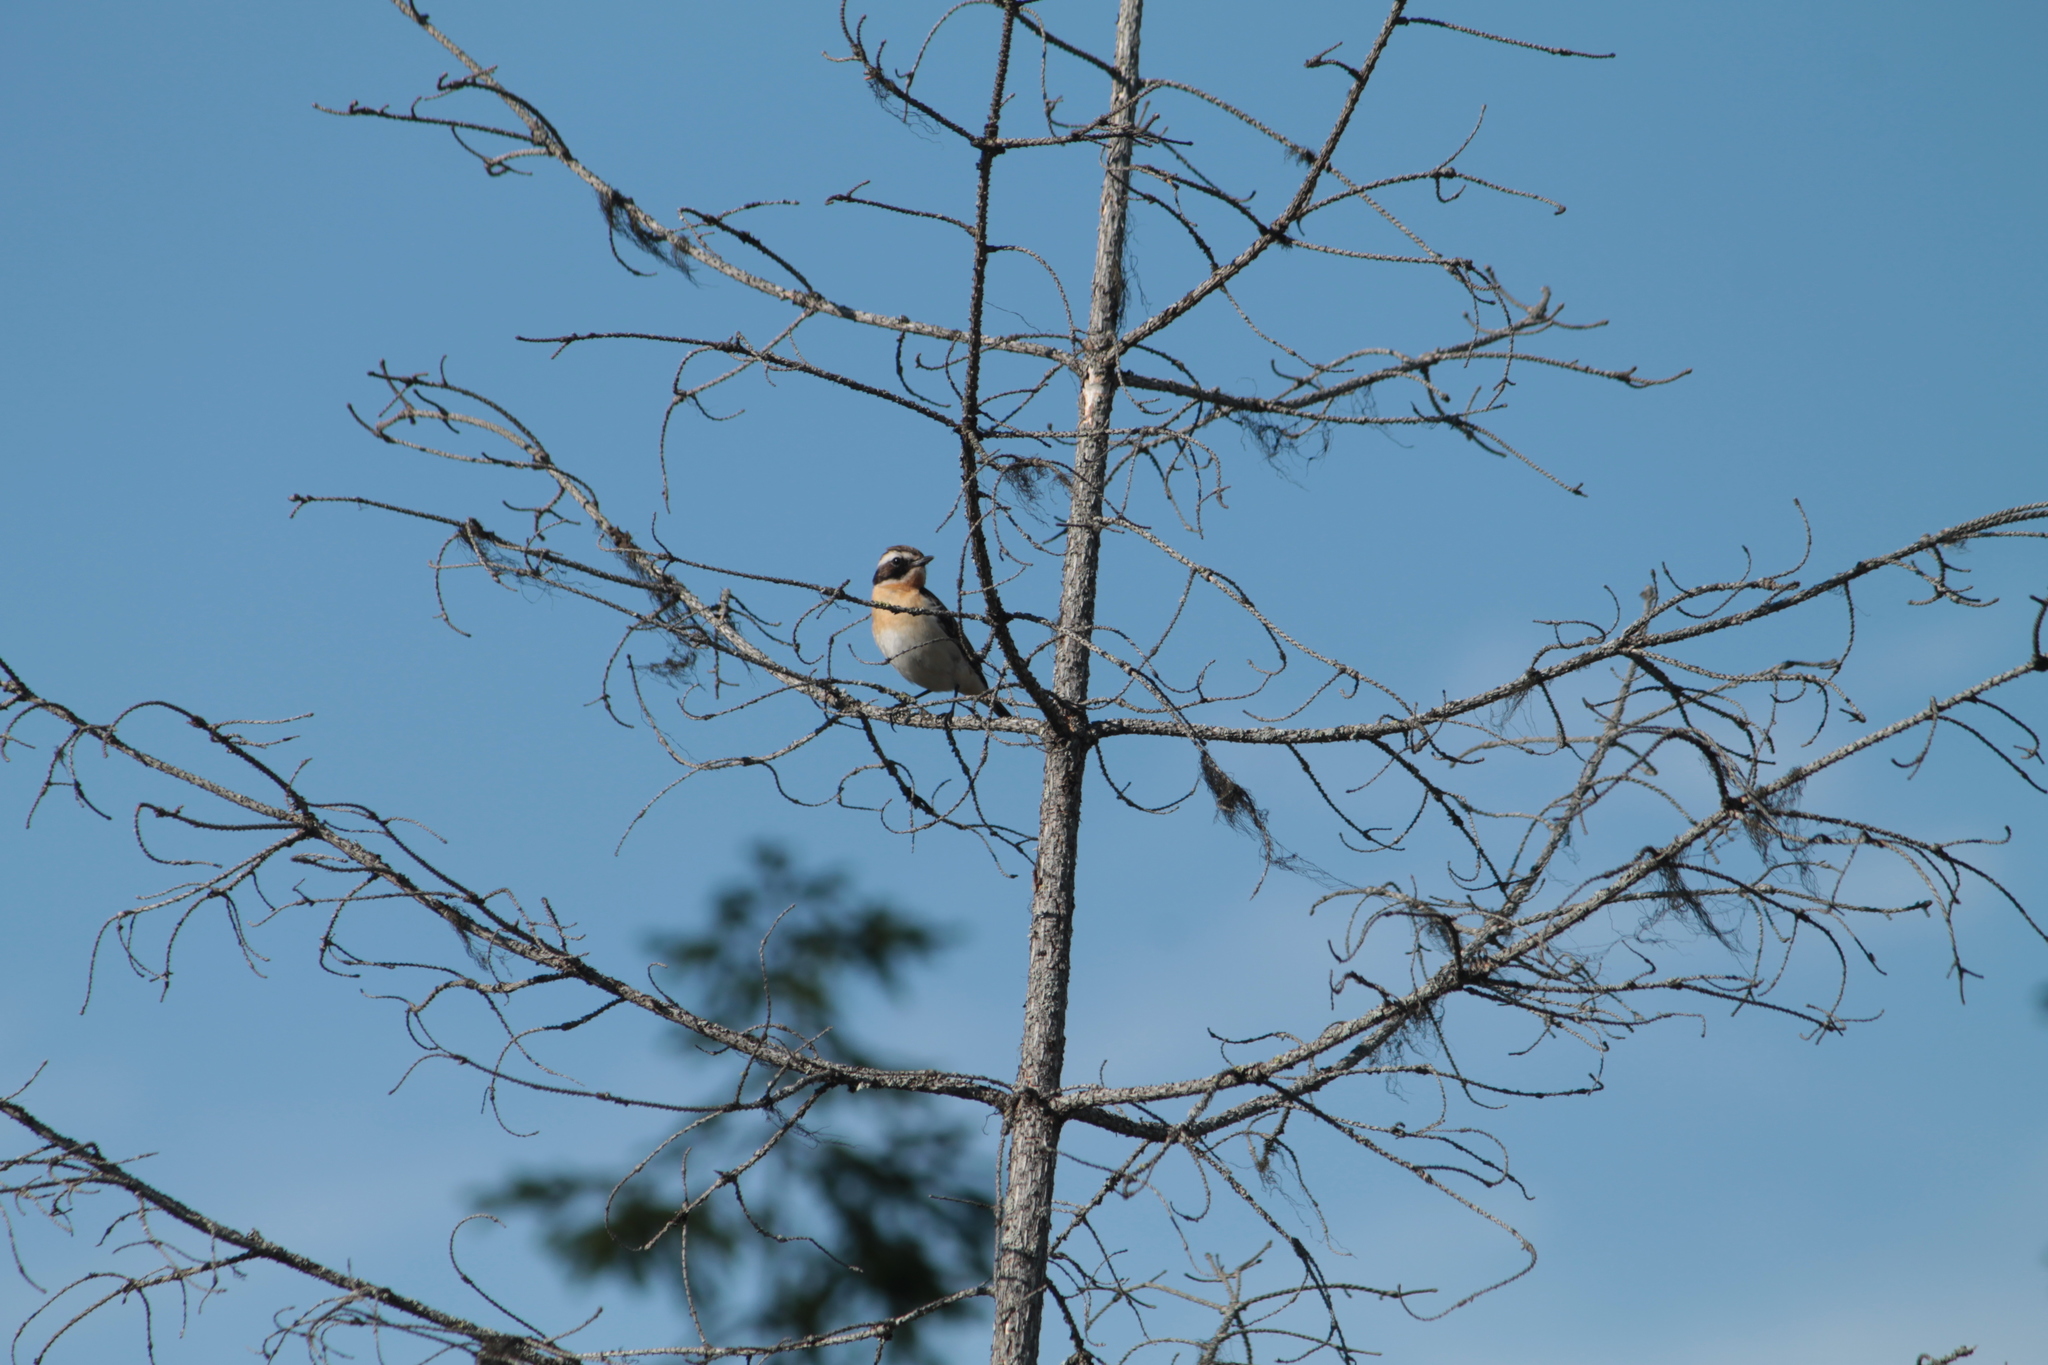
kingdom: Animalia
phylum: Chordata
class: Aves
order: Passeriformes
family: Muscicapidae
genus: Saxicola
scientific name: Saxicola rubetra
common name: Whinchat
